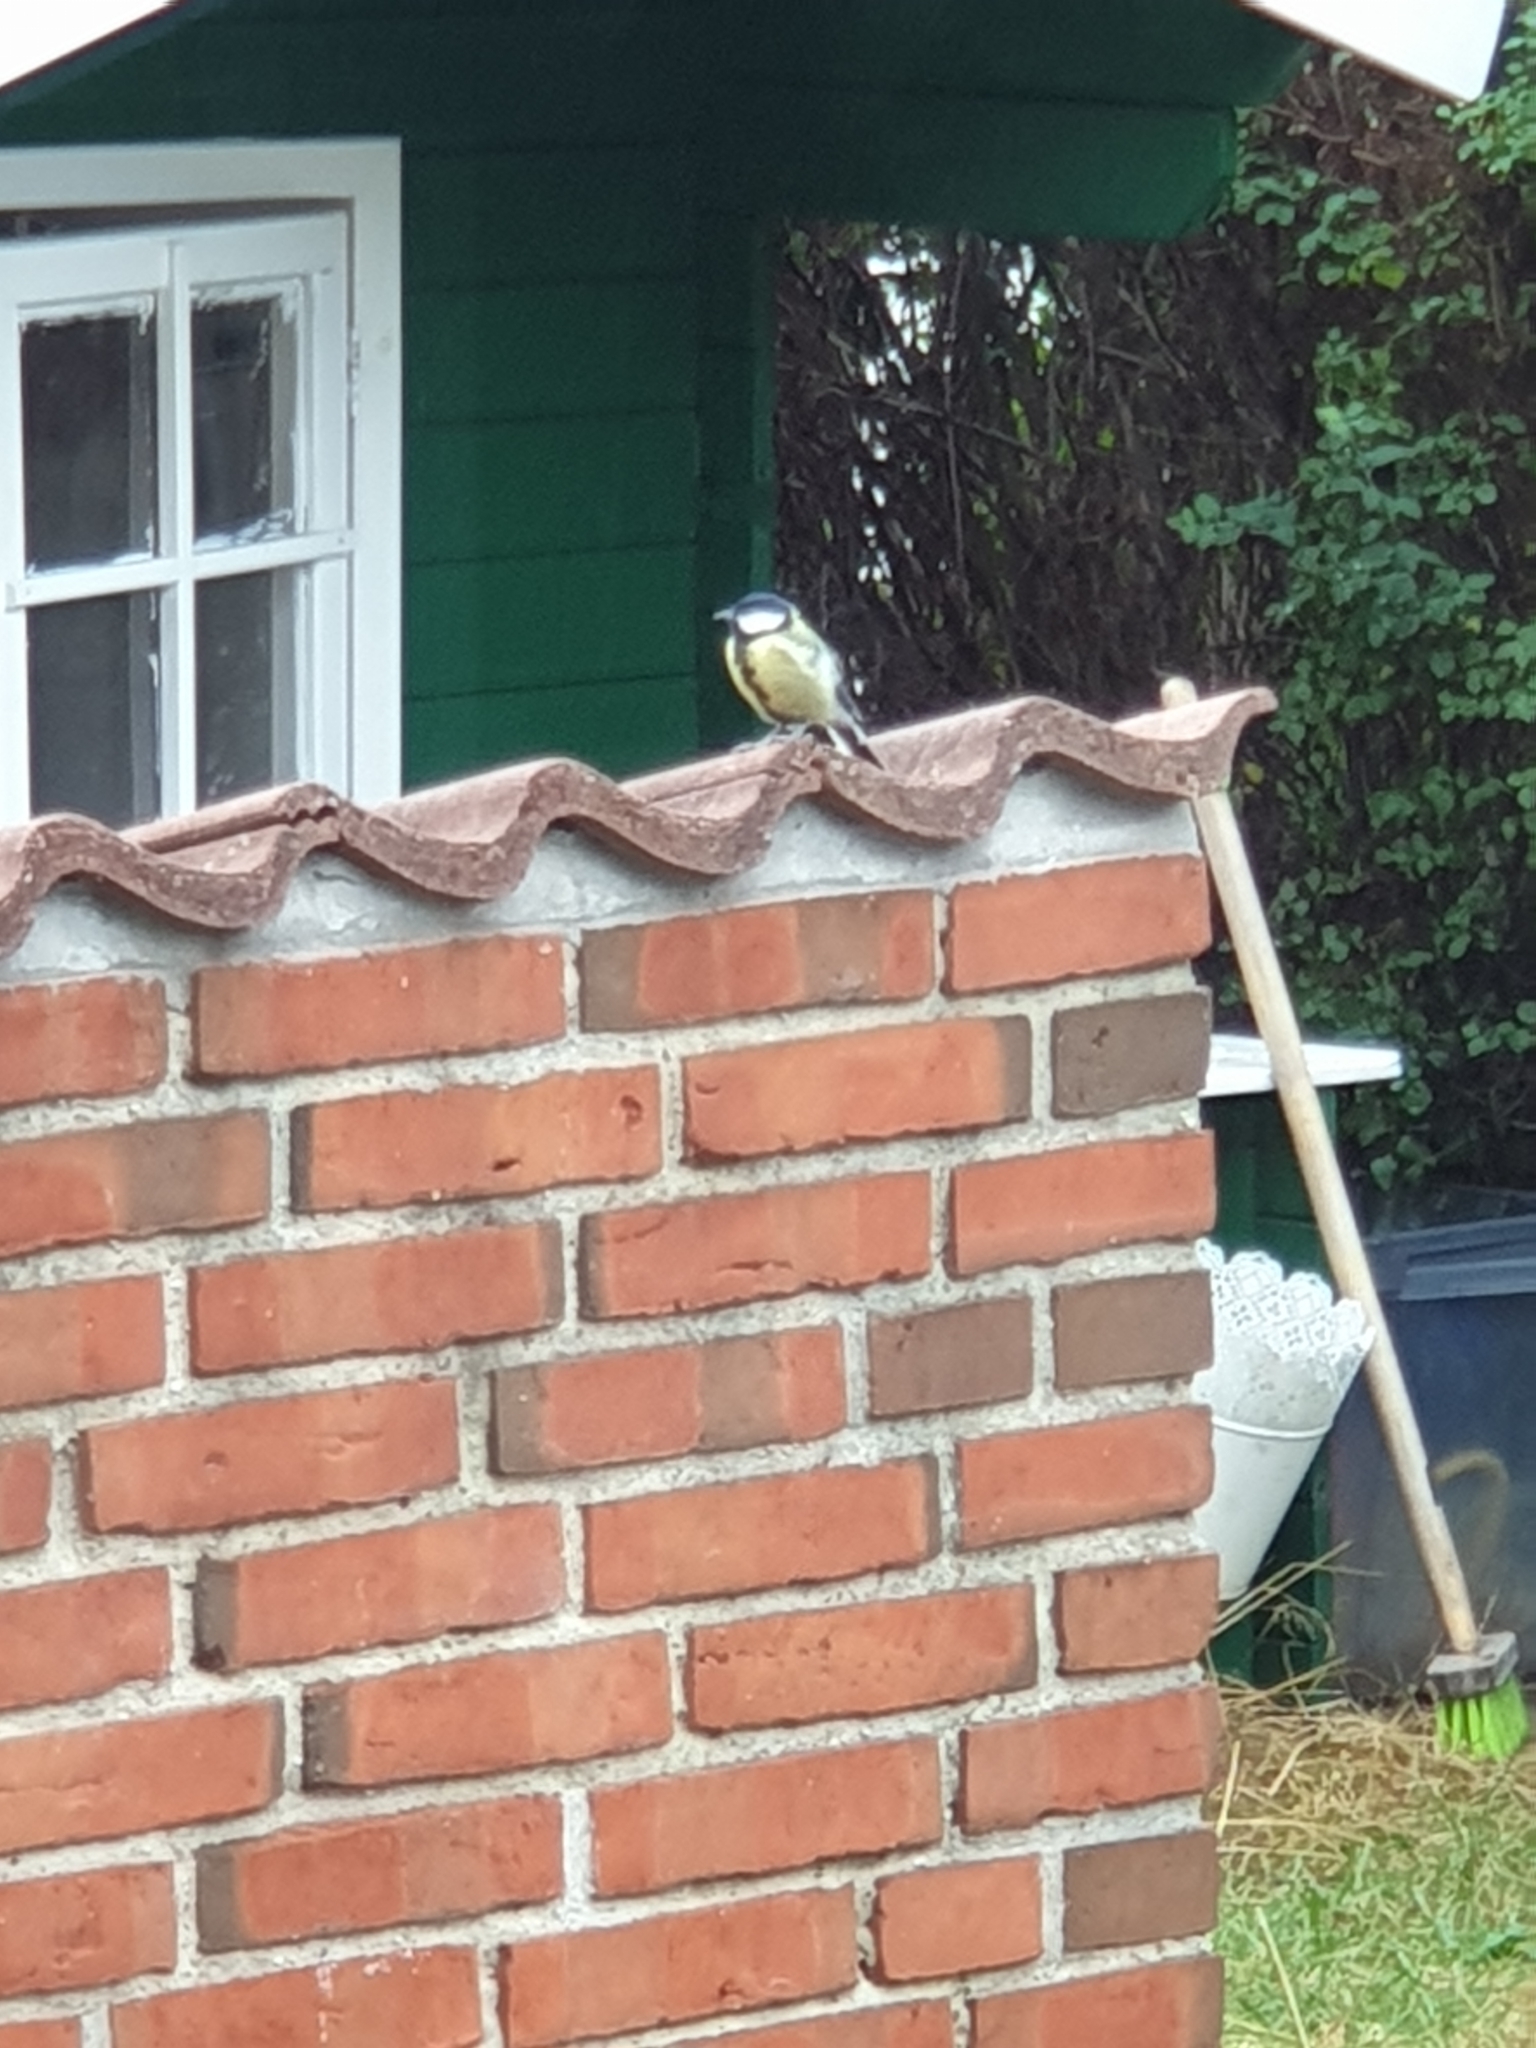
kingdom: Animalia
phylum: Chordata
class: Aves
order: Passeriformes
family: Paridae
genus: Parus
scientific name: Parus major
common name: Great tit
